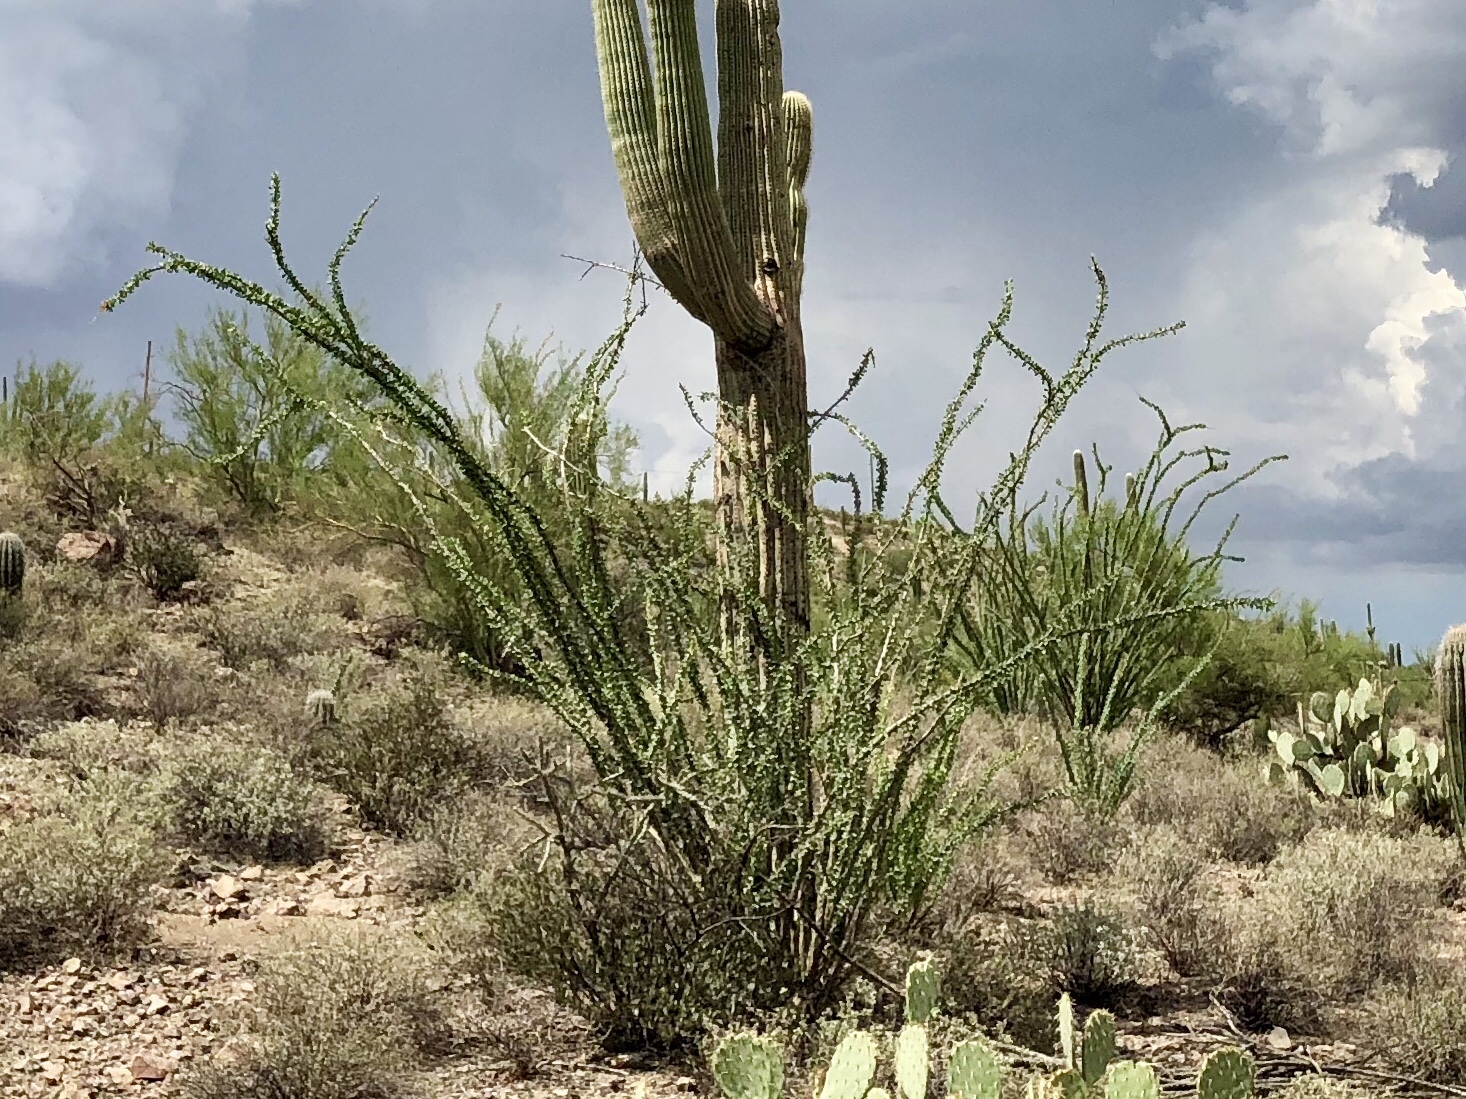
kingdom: Plantae
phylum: Tracheophyta
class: Magnoliopsida
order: Ericales
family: Fouquieriaceae
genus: Fouquieria
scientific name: Fouquieria splendens
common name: Vine-cactus
